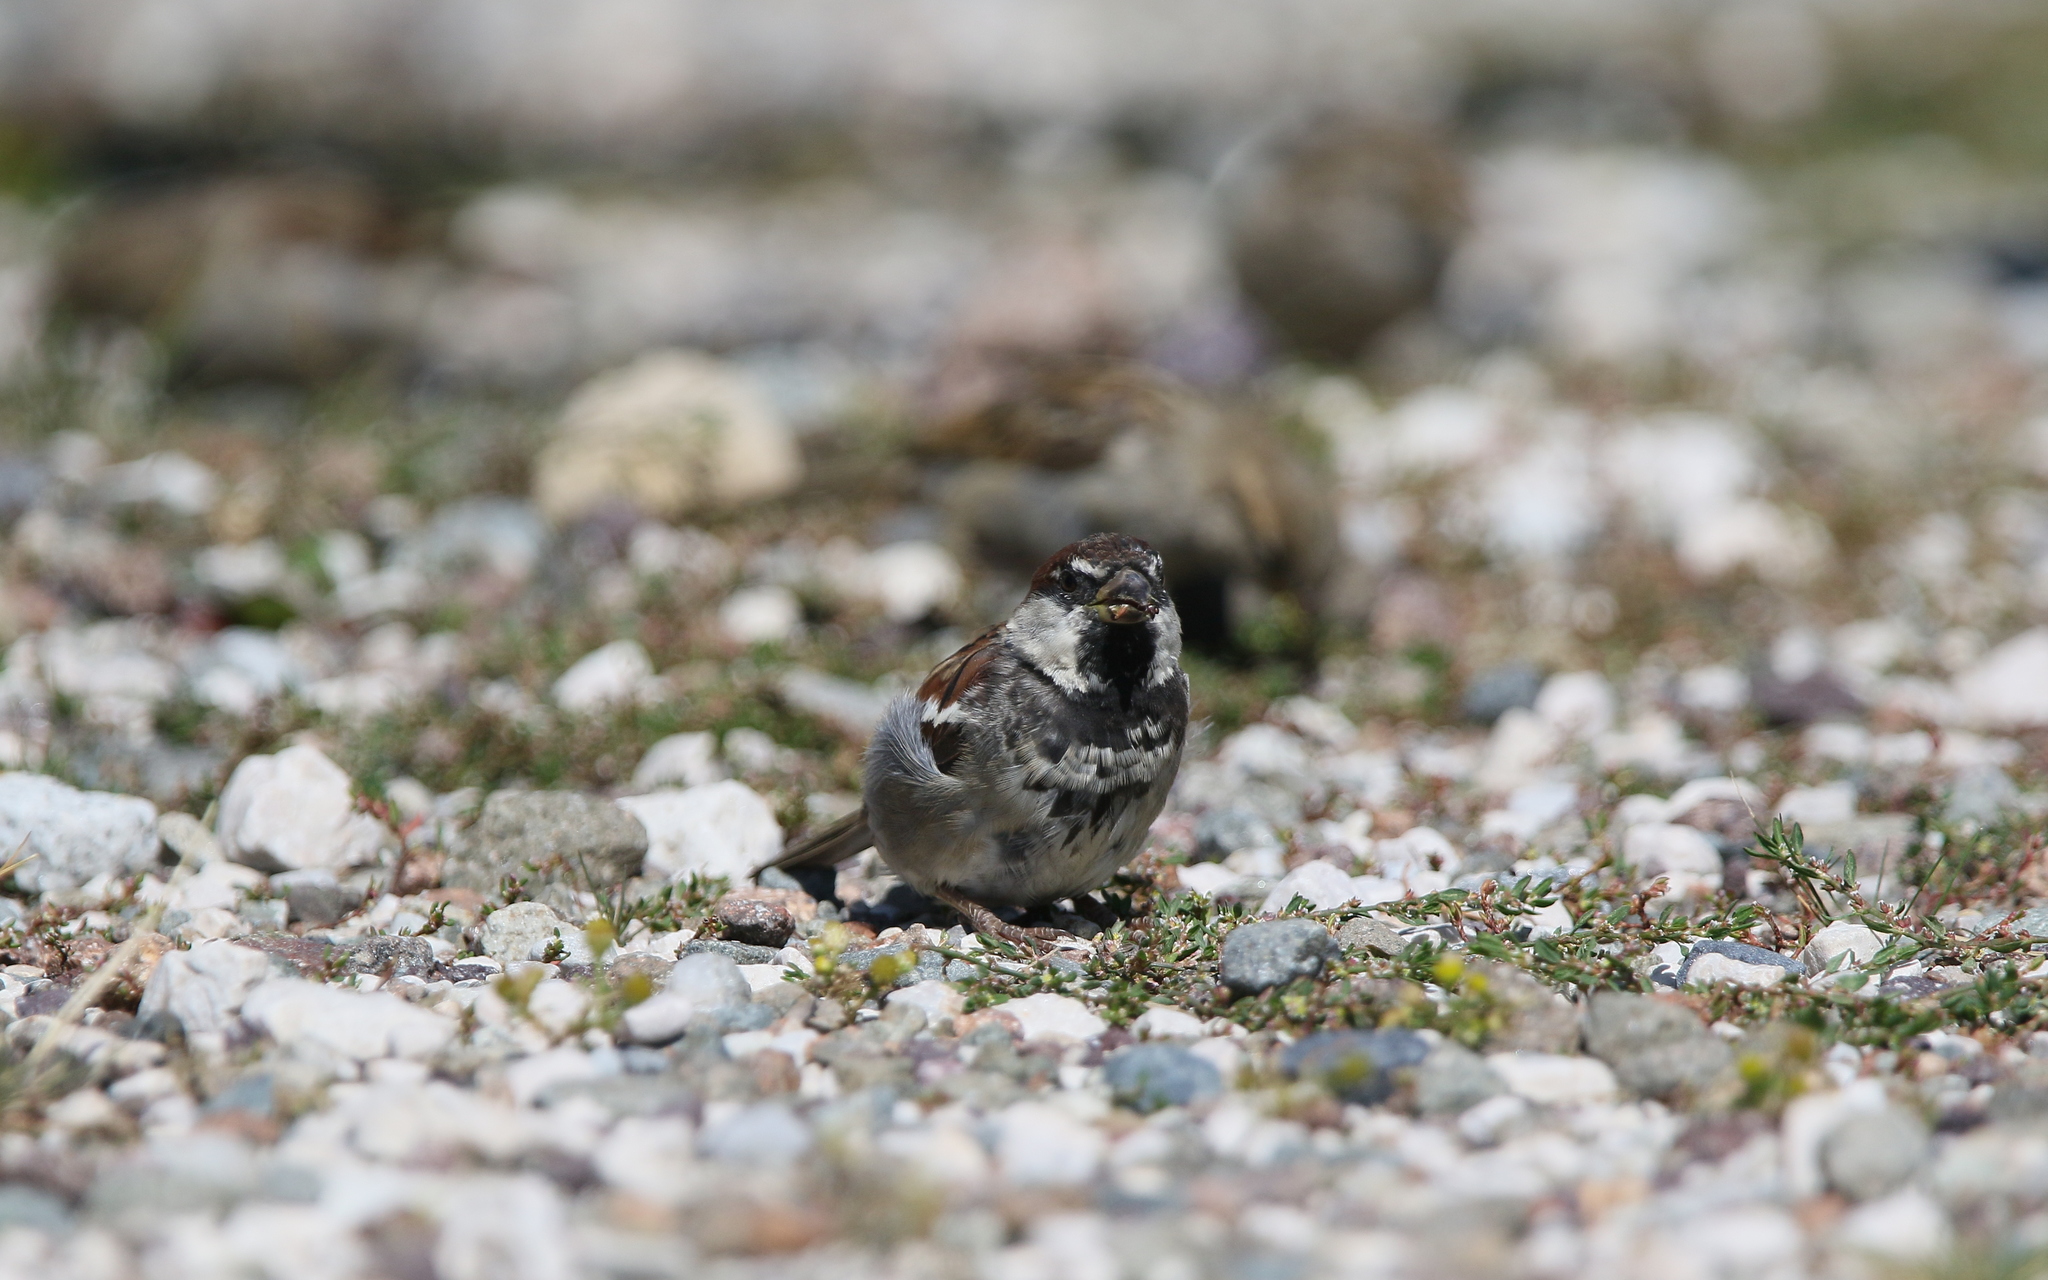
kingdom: Animalia
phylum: Chordata
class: Aves
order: Passeriformes
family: Passeridae
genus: Passer
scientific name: Passer italiae
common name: Italian sparrow
